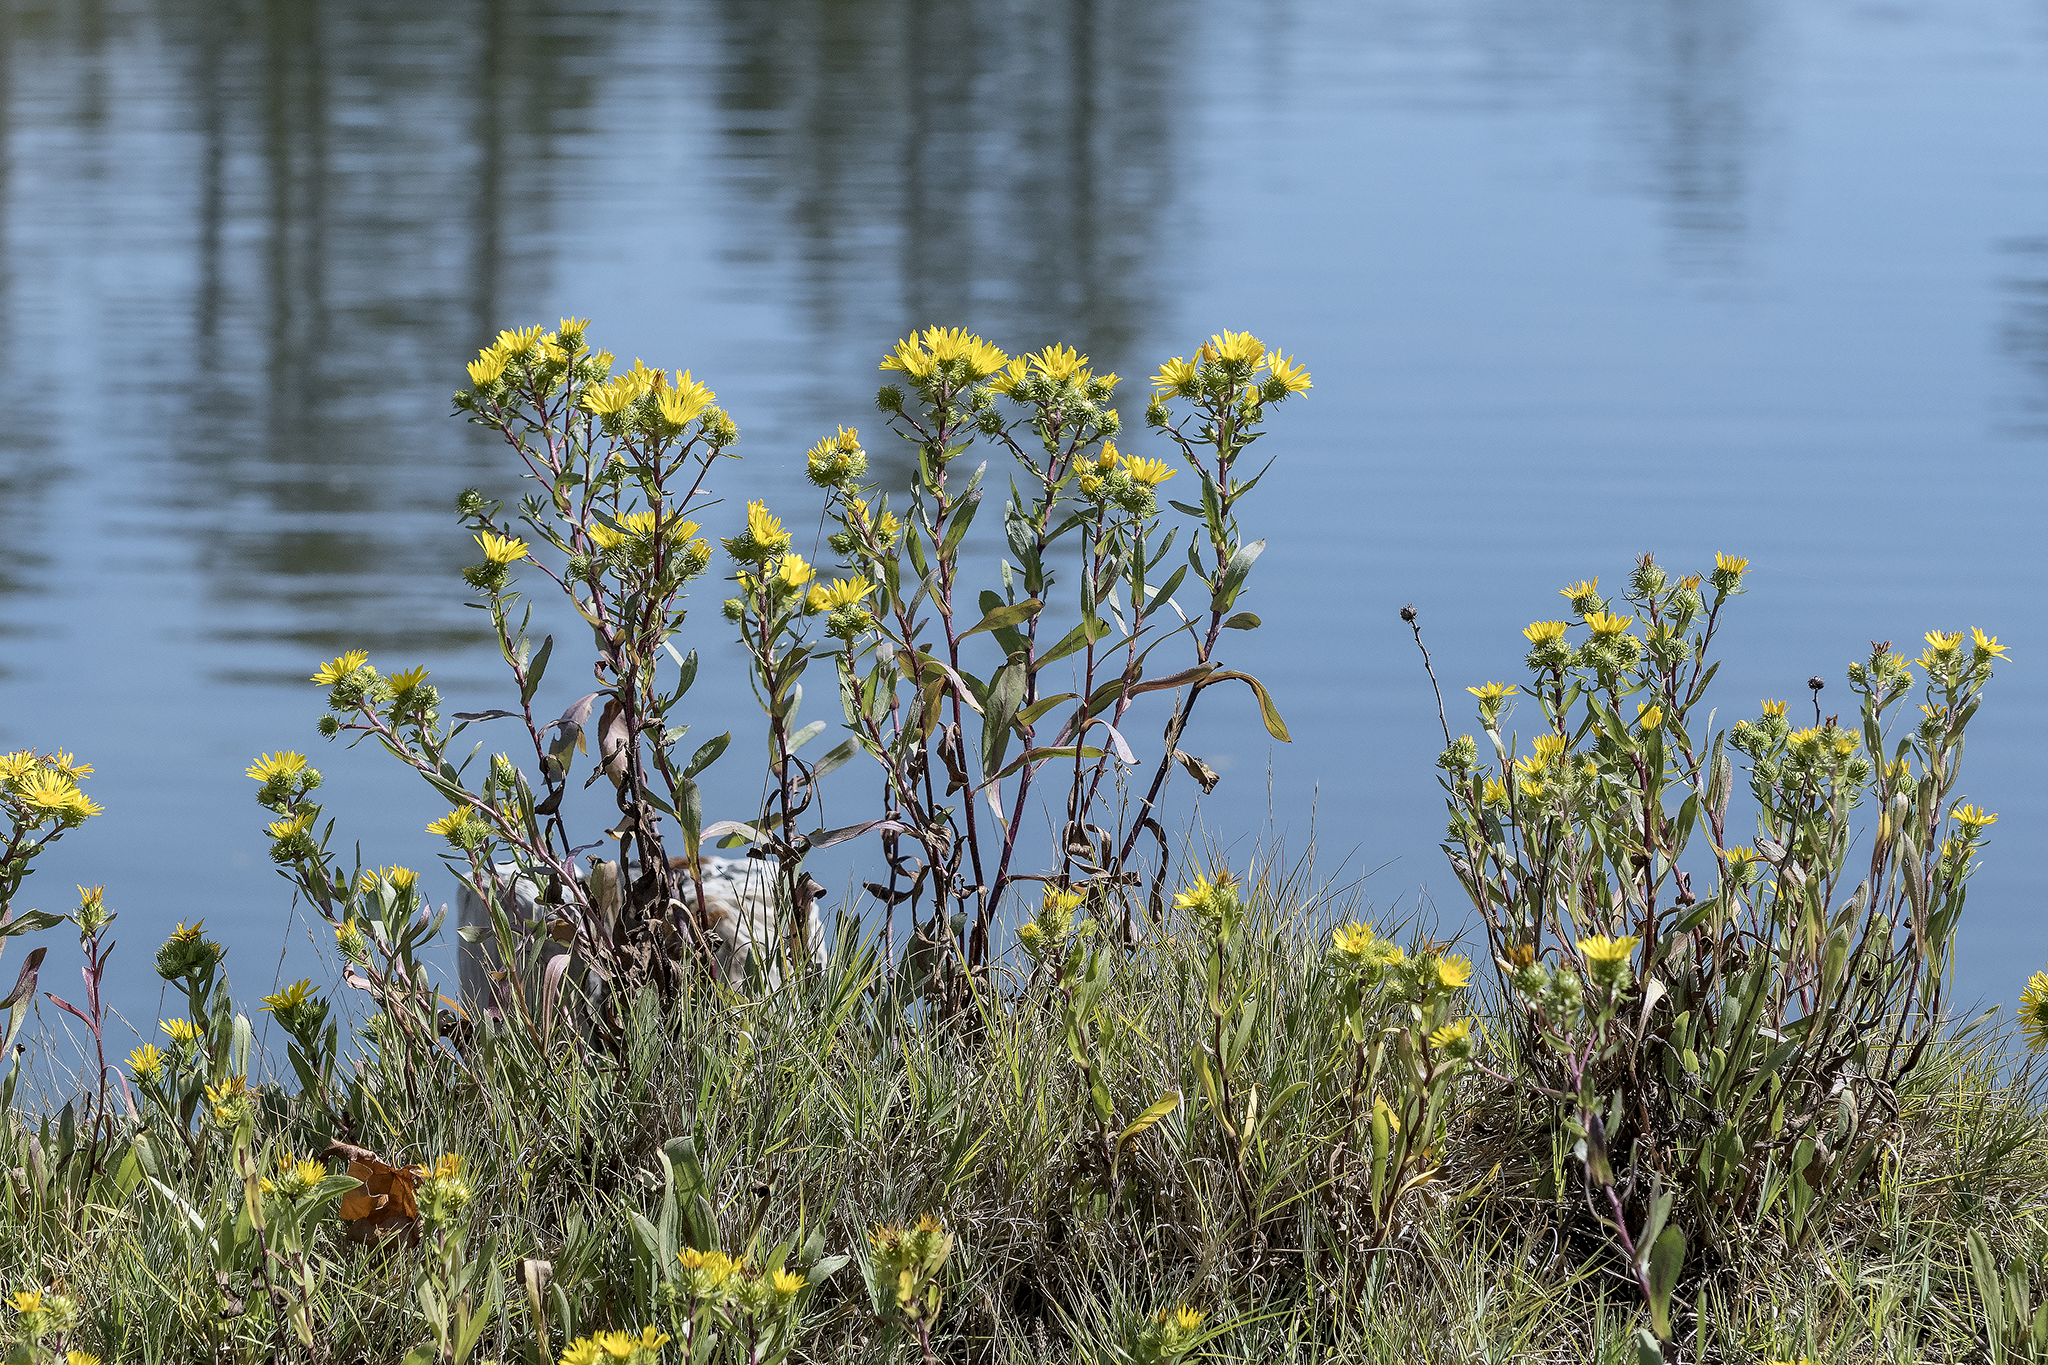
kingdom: Plantae
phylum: Tracheophyta
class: Magnoliopsida
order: Asterales
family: Asteraceae
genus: Grindelia
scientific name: Grindelia hirsutula
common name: Hairy gumweed
